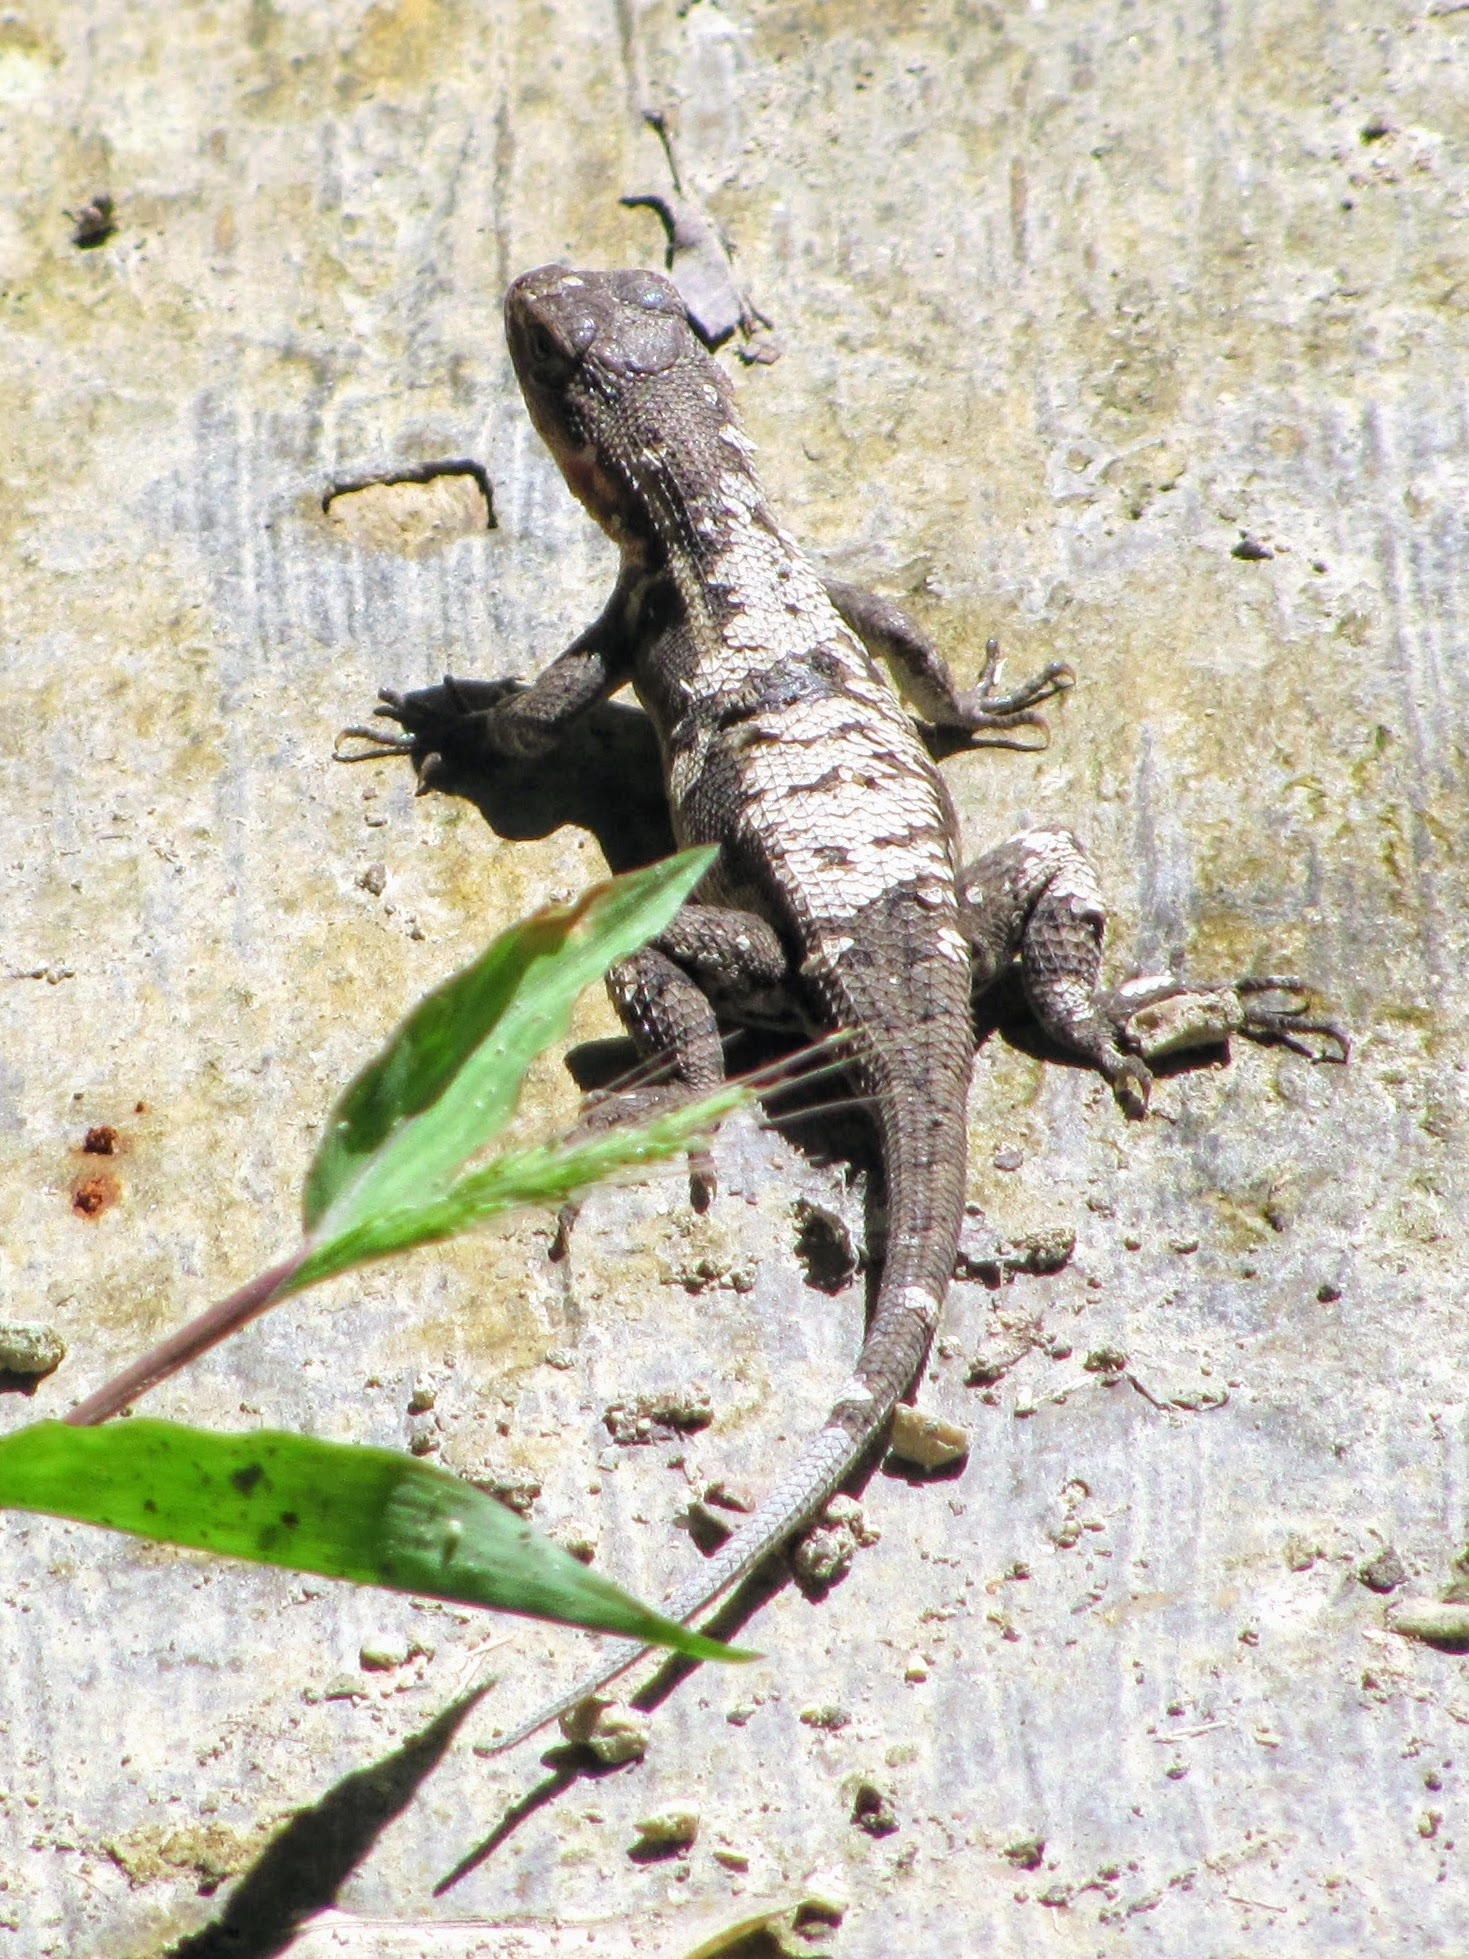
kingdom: Animalia
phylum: Chordata
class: Squamata
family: Phrynosomatidae
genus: Sceloporus
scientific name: Sceloporus variabilis
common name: Rosebelly lizard
